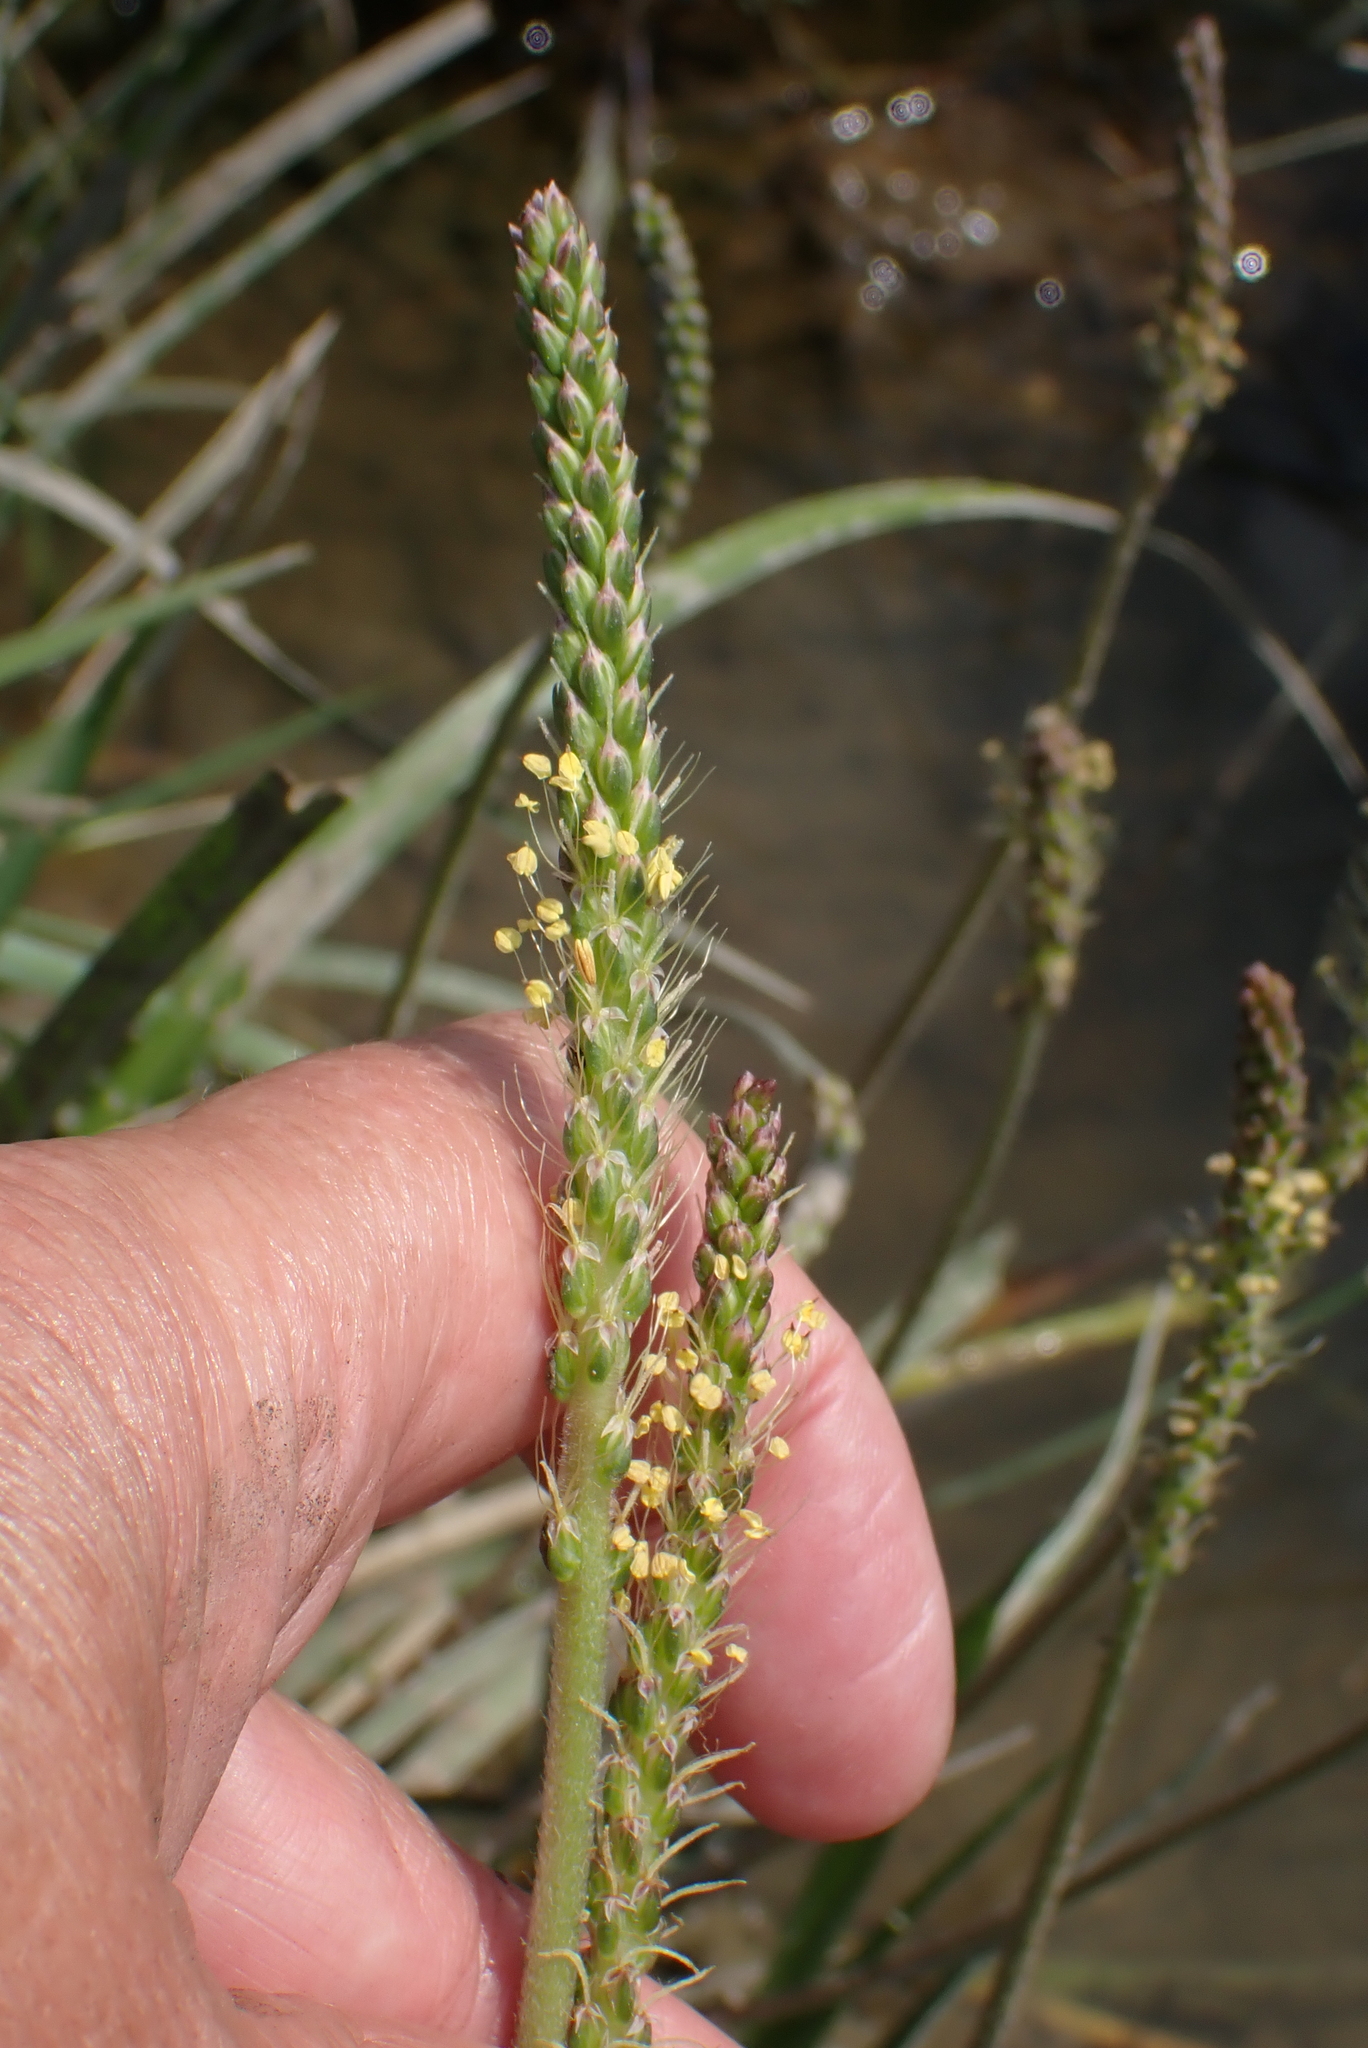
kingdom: Plantae
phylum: Tracheophyta
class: Magnoliopsida
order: Lamiales
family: Plantaginaceae
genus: Plantago
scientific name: Plantago maritima
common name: Sea plantain
